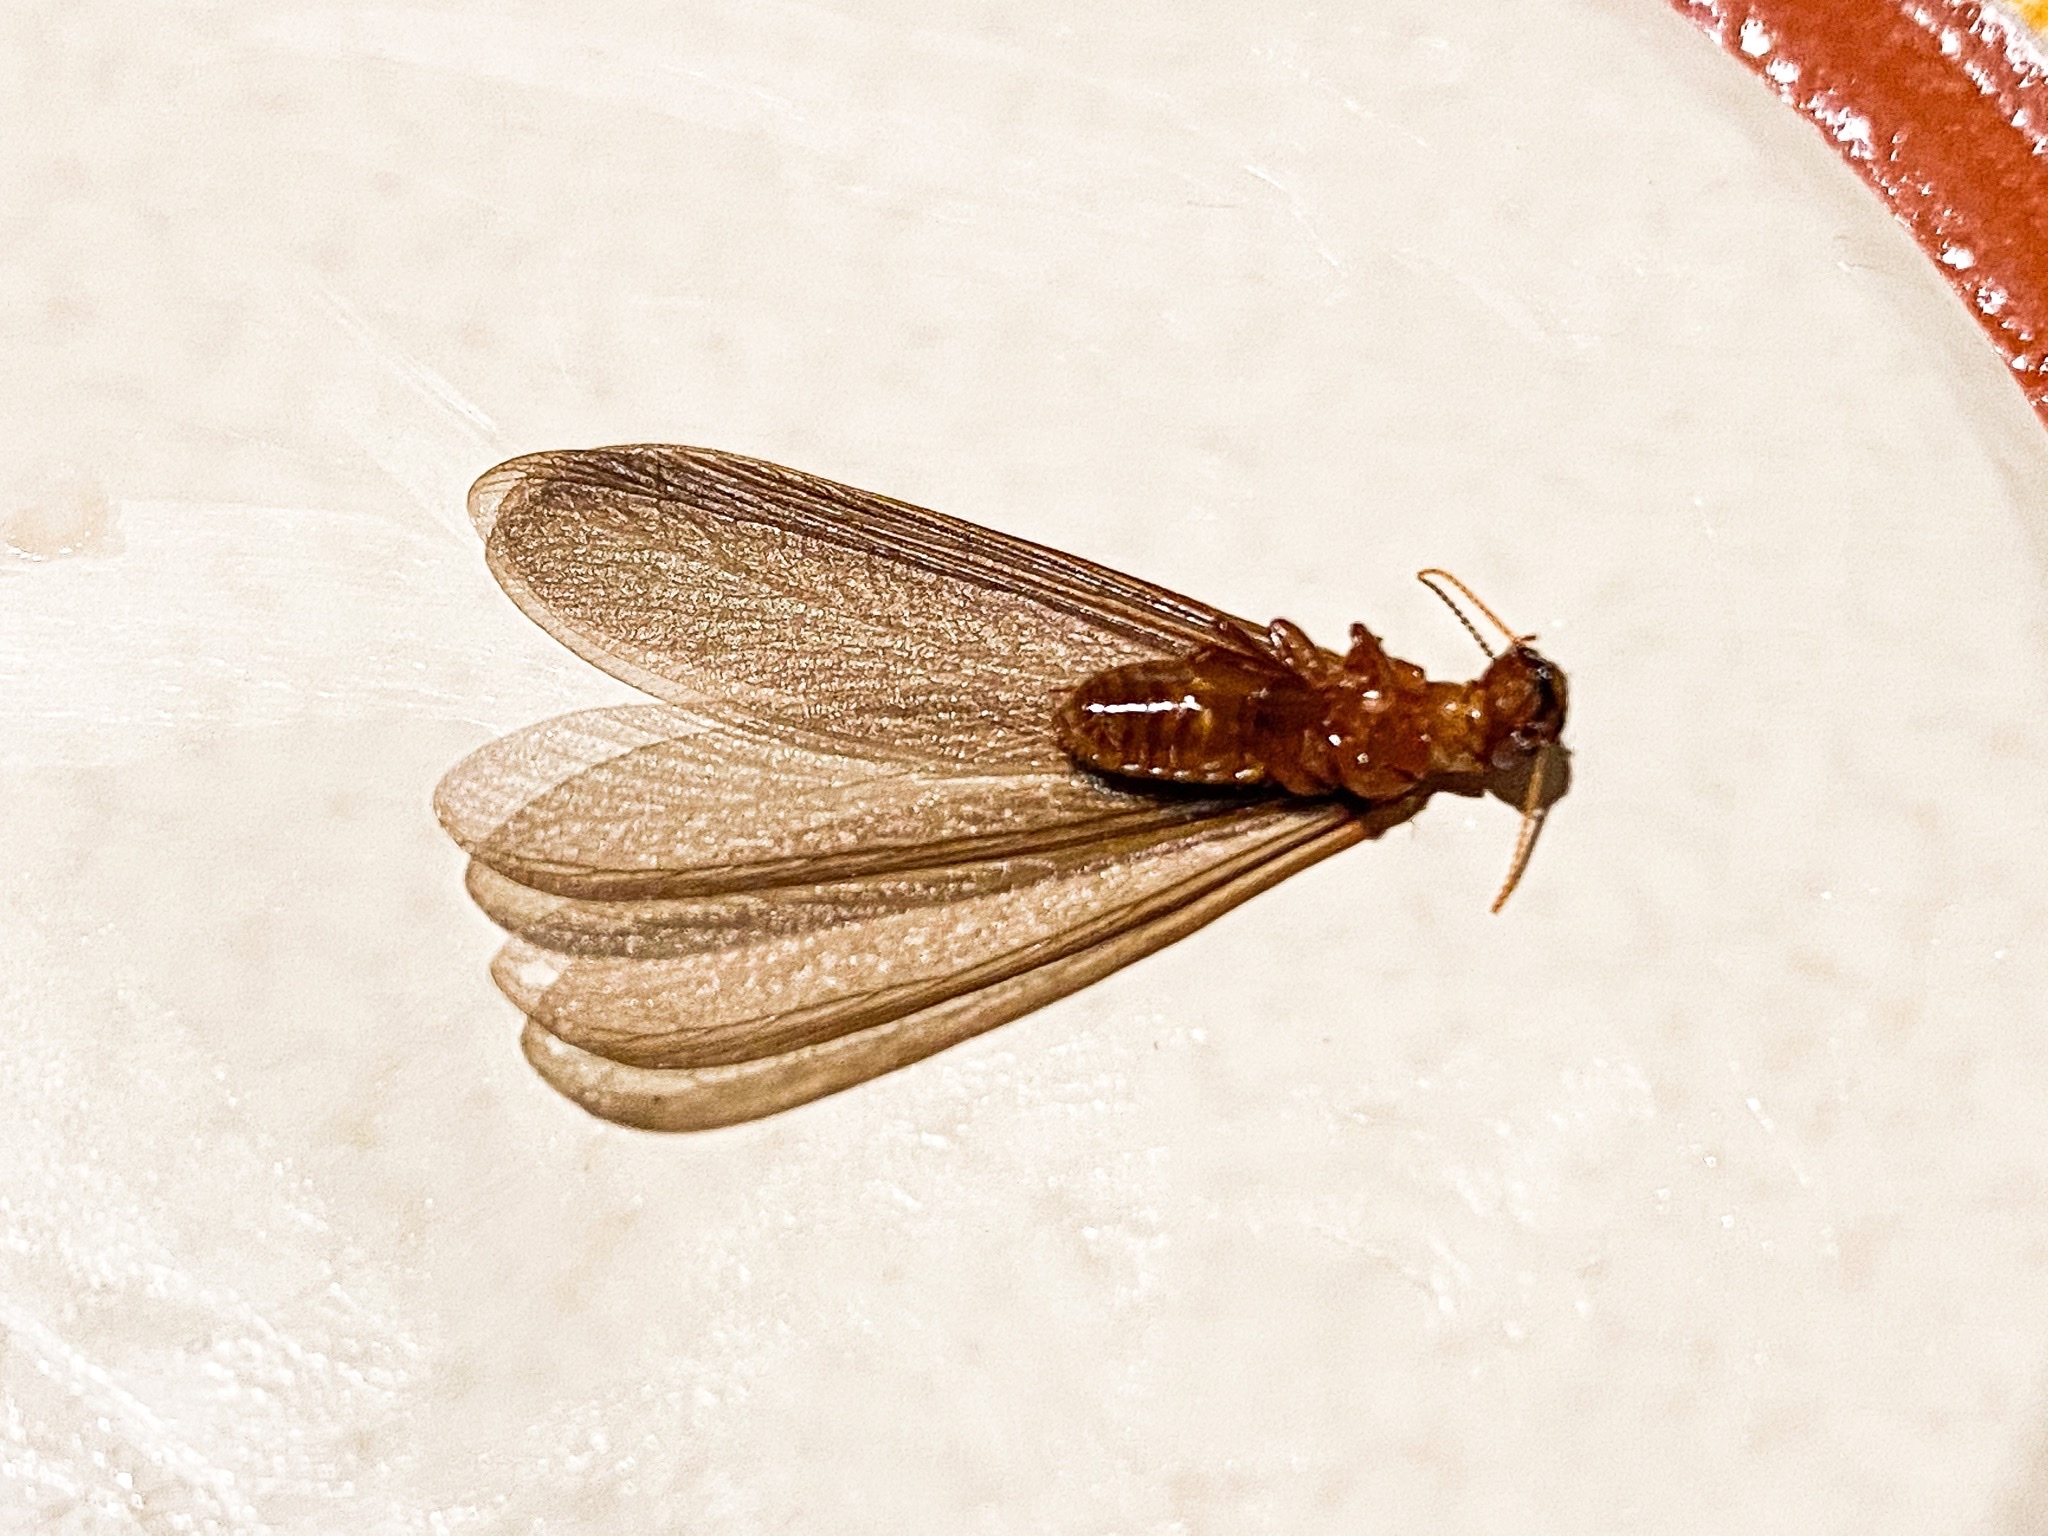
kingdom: Animalia
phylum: Arthropoda
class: Insecta
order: Blattodea
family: Archotermopsidae
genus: Zootermopsis
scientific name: Zootermopsis nevadensis
